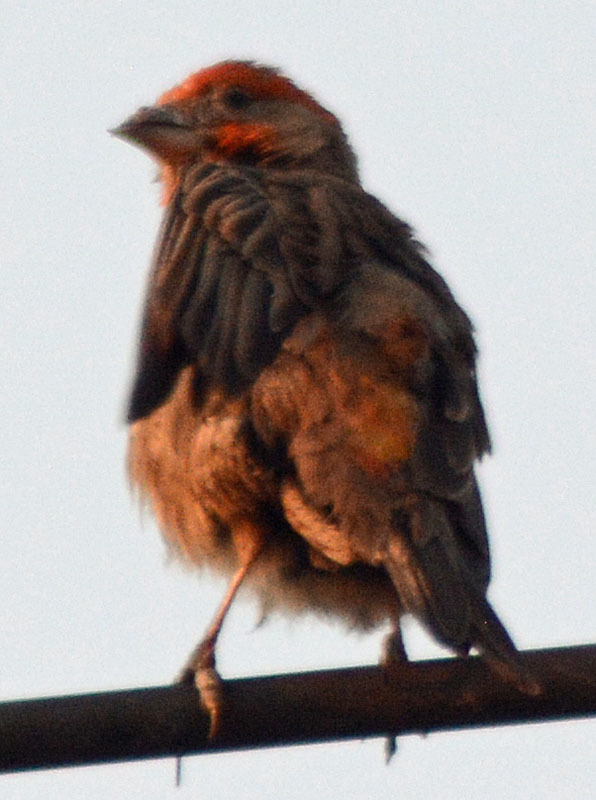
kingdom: Animalia
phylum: Chordata
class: Aves
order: Passeriformes
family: Fringillidae
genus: Haemorhous
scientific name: Haemorhous mexicanus
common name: House finch
